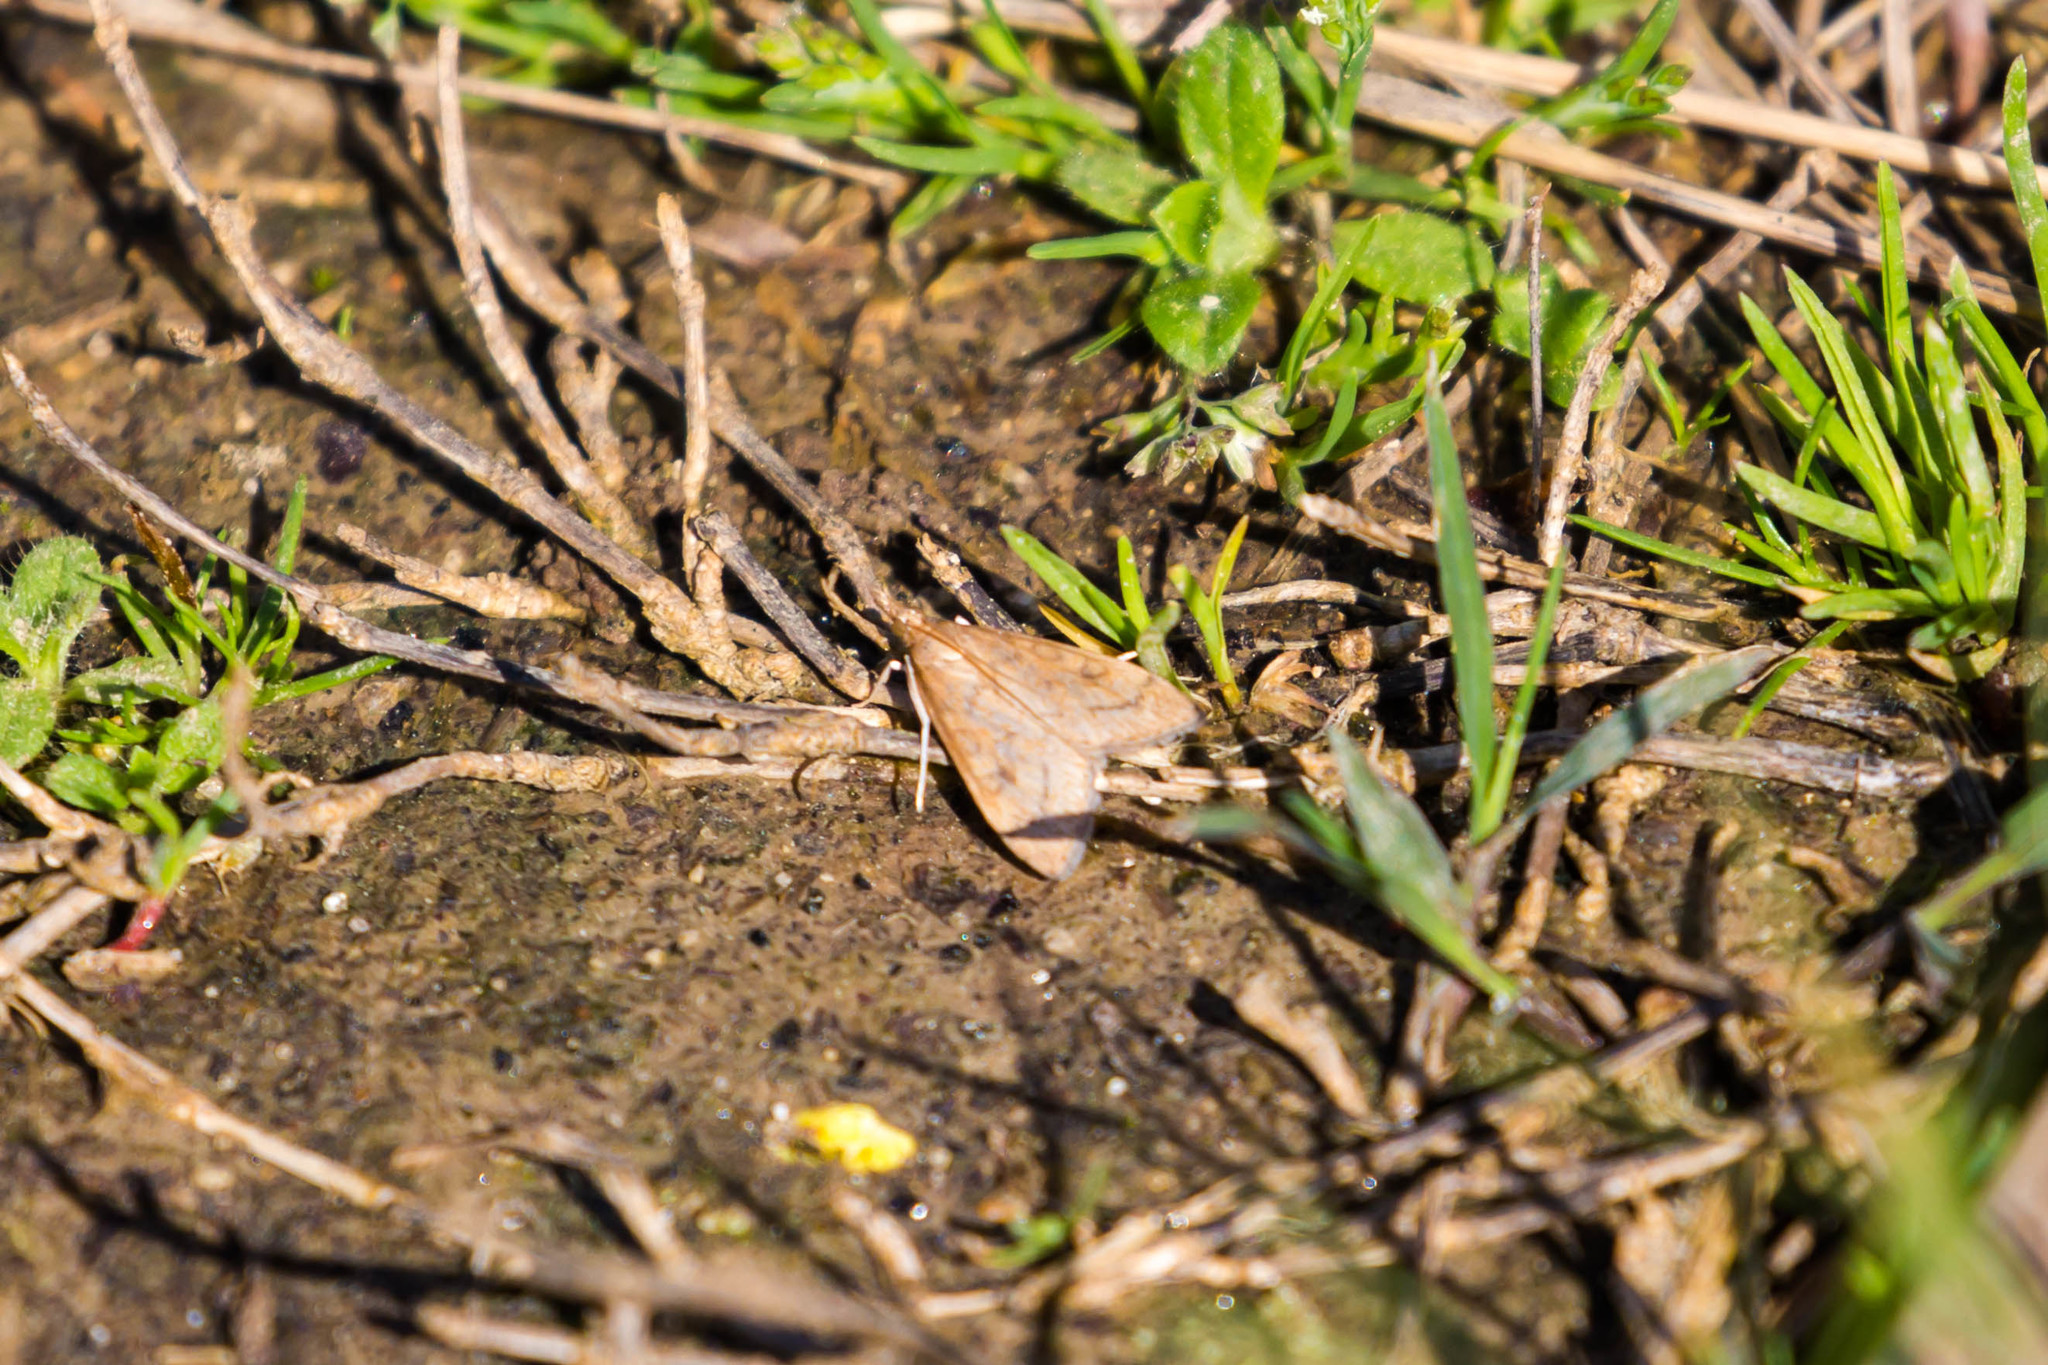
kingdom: Animalia
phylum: Arthropoda
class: Insecta
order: Lepidoptera
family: Crambidae
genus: Udea
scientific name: Udea rubigalis
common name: Celery leaftier moth
